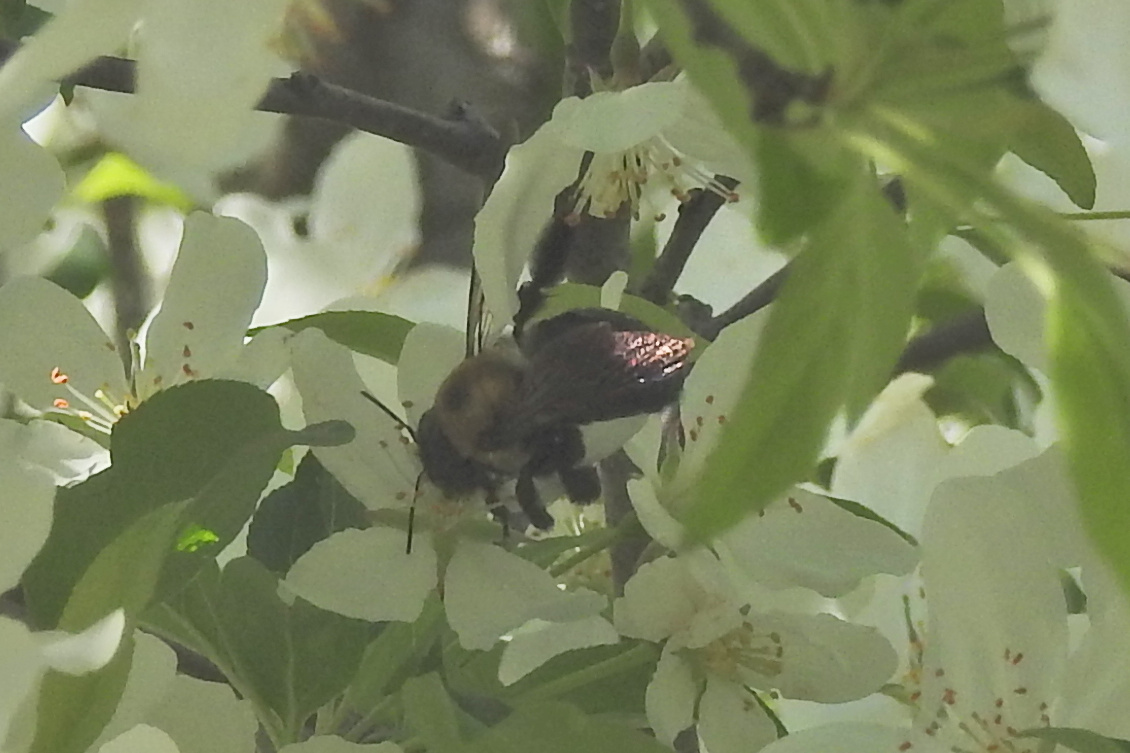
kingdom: Animalia
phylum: Arthropoda
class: Insecta
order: Hymenoptera
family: Apidae
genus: Xylocopa
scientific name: Xylocopa virginica
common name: Carpenter bee
